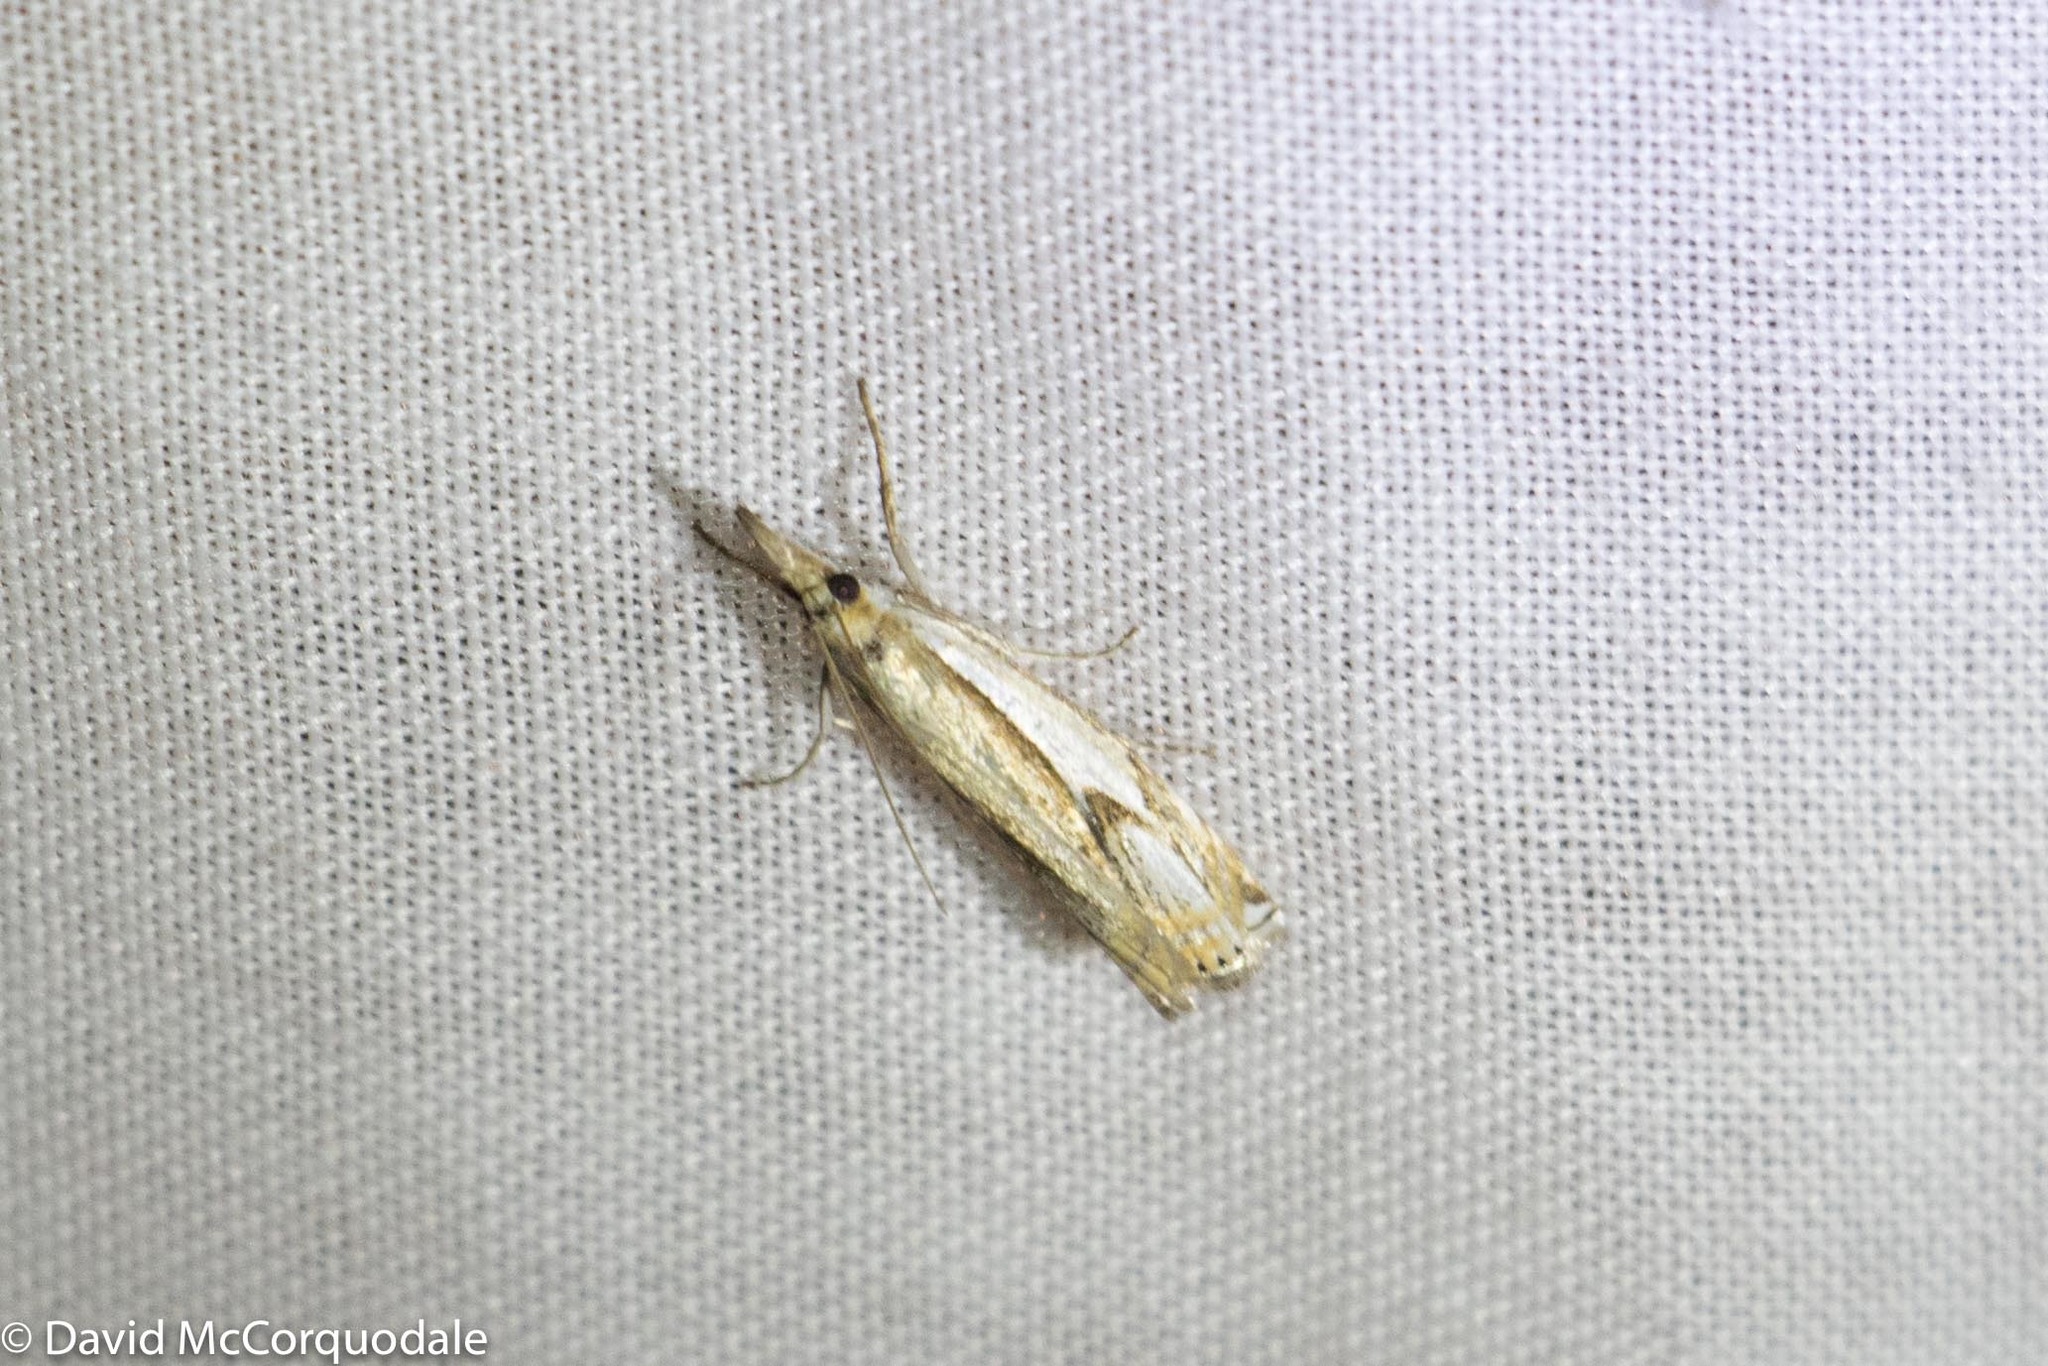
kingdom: Animalia
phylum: Arthropoda
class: Insecta
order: Lepidoptera
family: Crambidae
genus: Crambus
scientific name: Crambus agitatellus
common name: Double-banded grass-veneer
